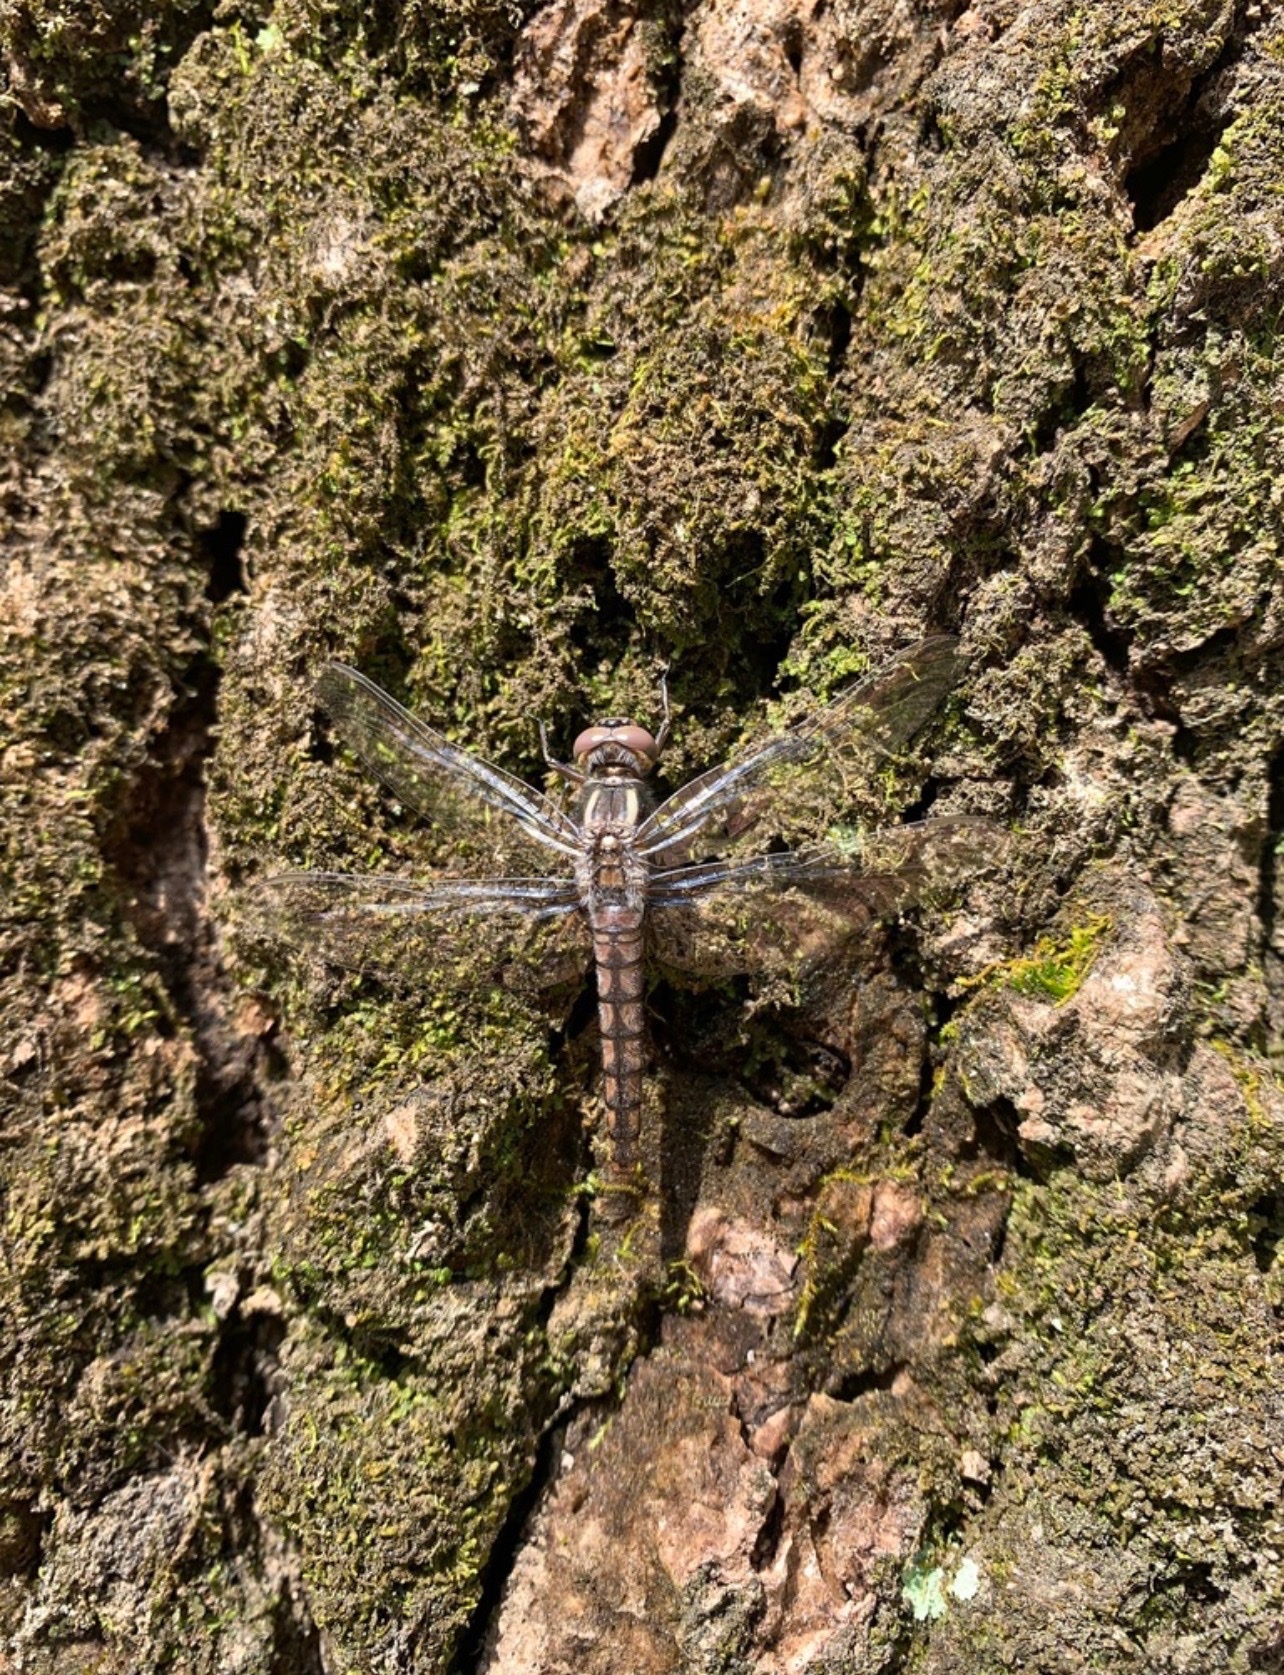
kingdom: Animalia
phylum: Arthropoda
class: Insecta
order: Odonata
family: Libellulidae
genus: Ladona
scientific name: Ladona deplanata
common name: Blue corporal
